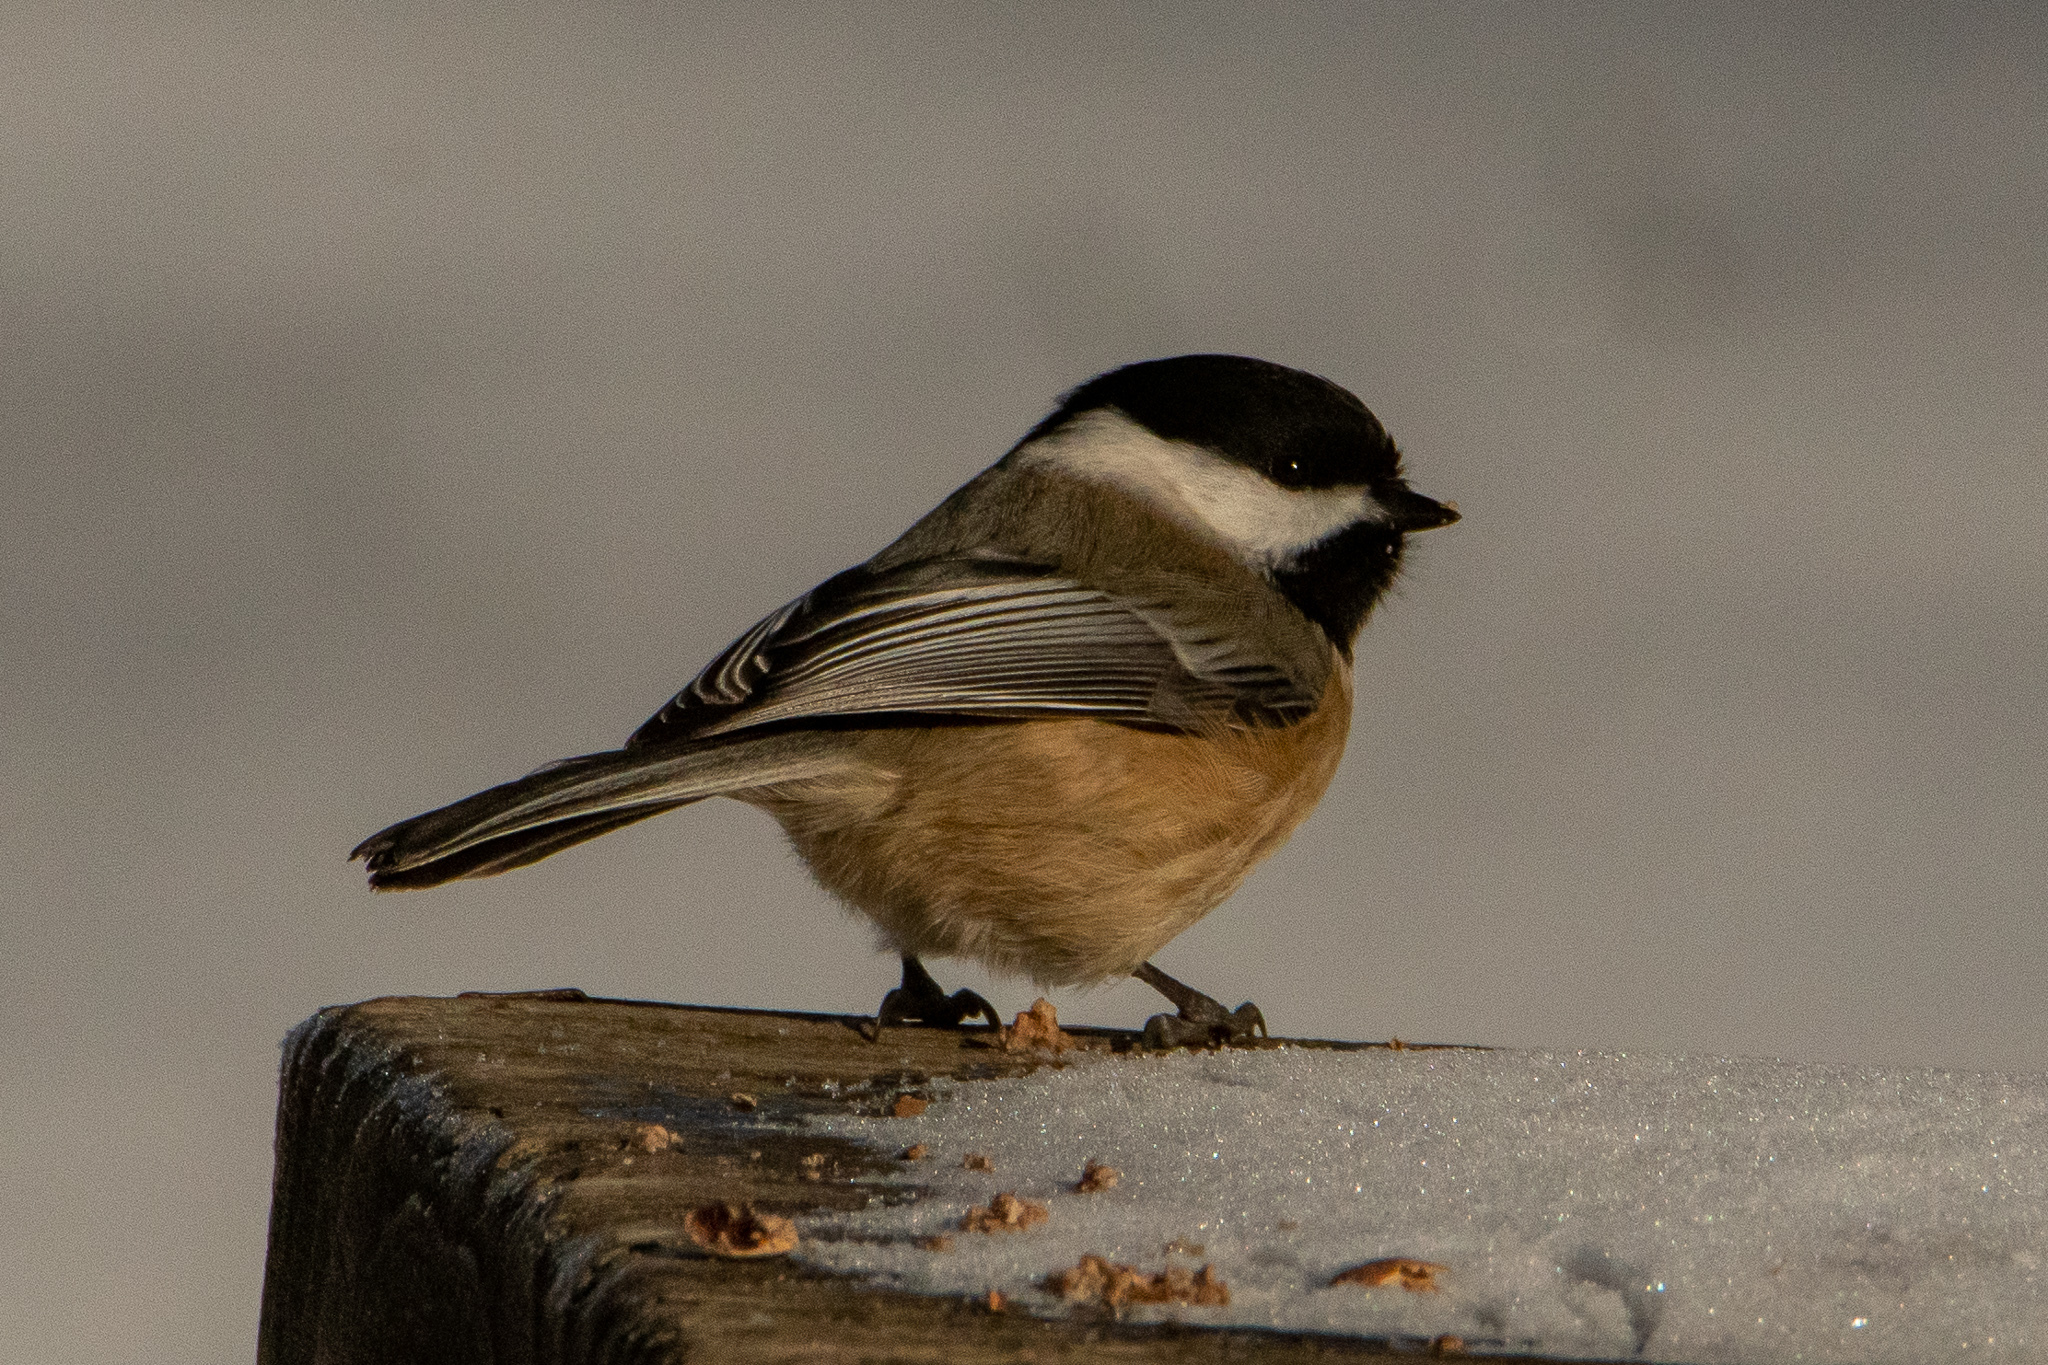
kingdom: Animalia
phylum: Chordata
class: Aves
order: Passeriformes
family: Paridae
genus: Poecile
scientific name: Poecile atricapillus
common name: Black-capped chickadee
